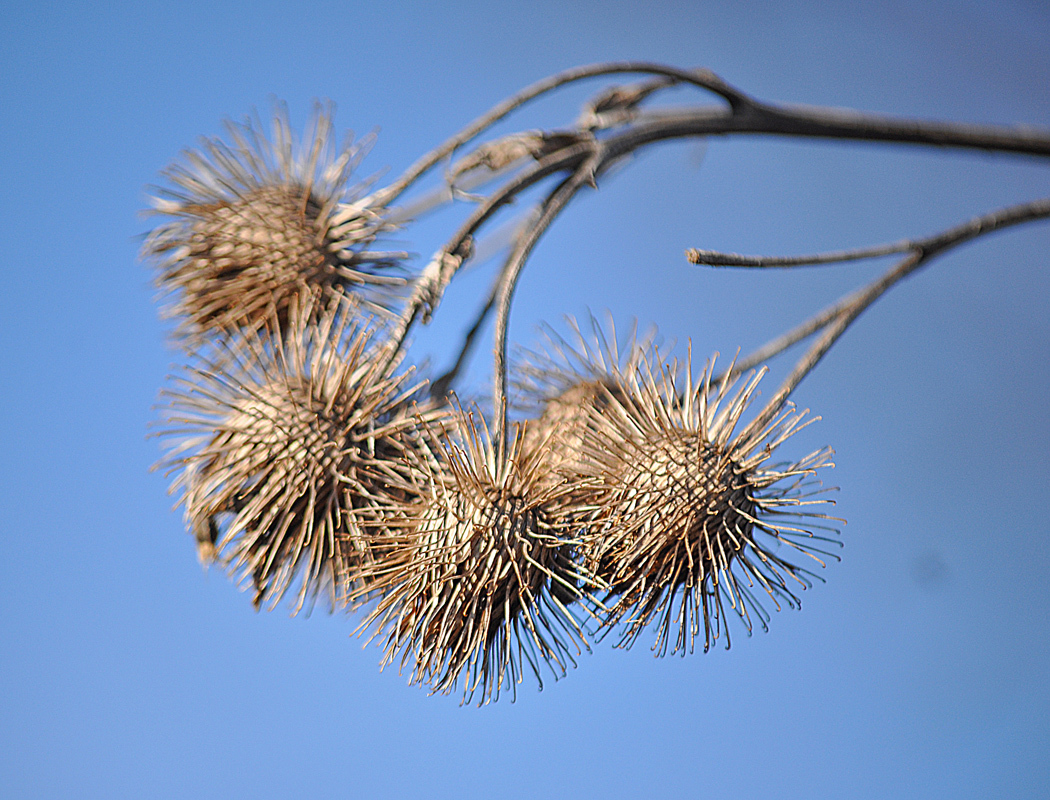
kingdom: Plantae
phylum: Tracheophyta
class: Magnoliopsida
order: Asterales
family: Asteraceae
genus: Arctium
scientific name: Arctium lappa
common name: Greater burdock
